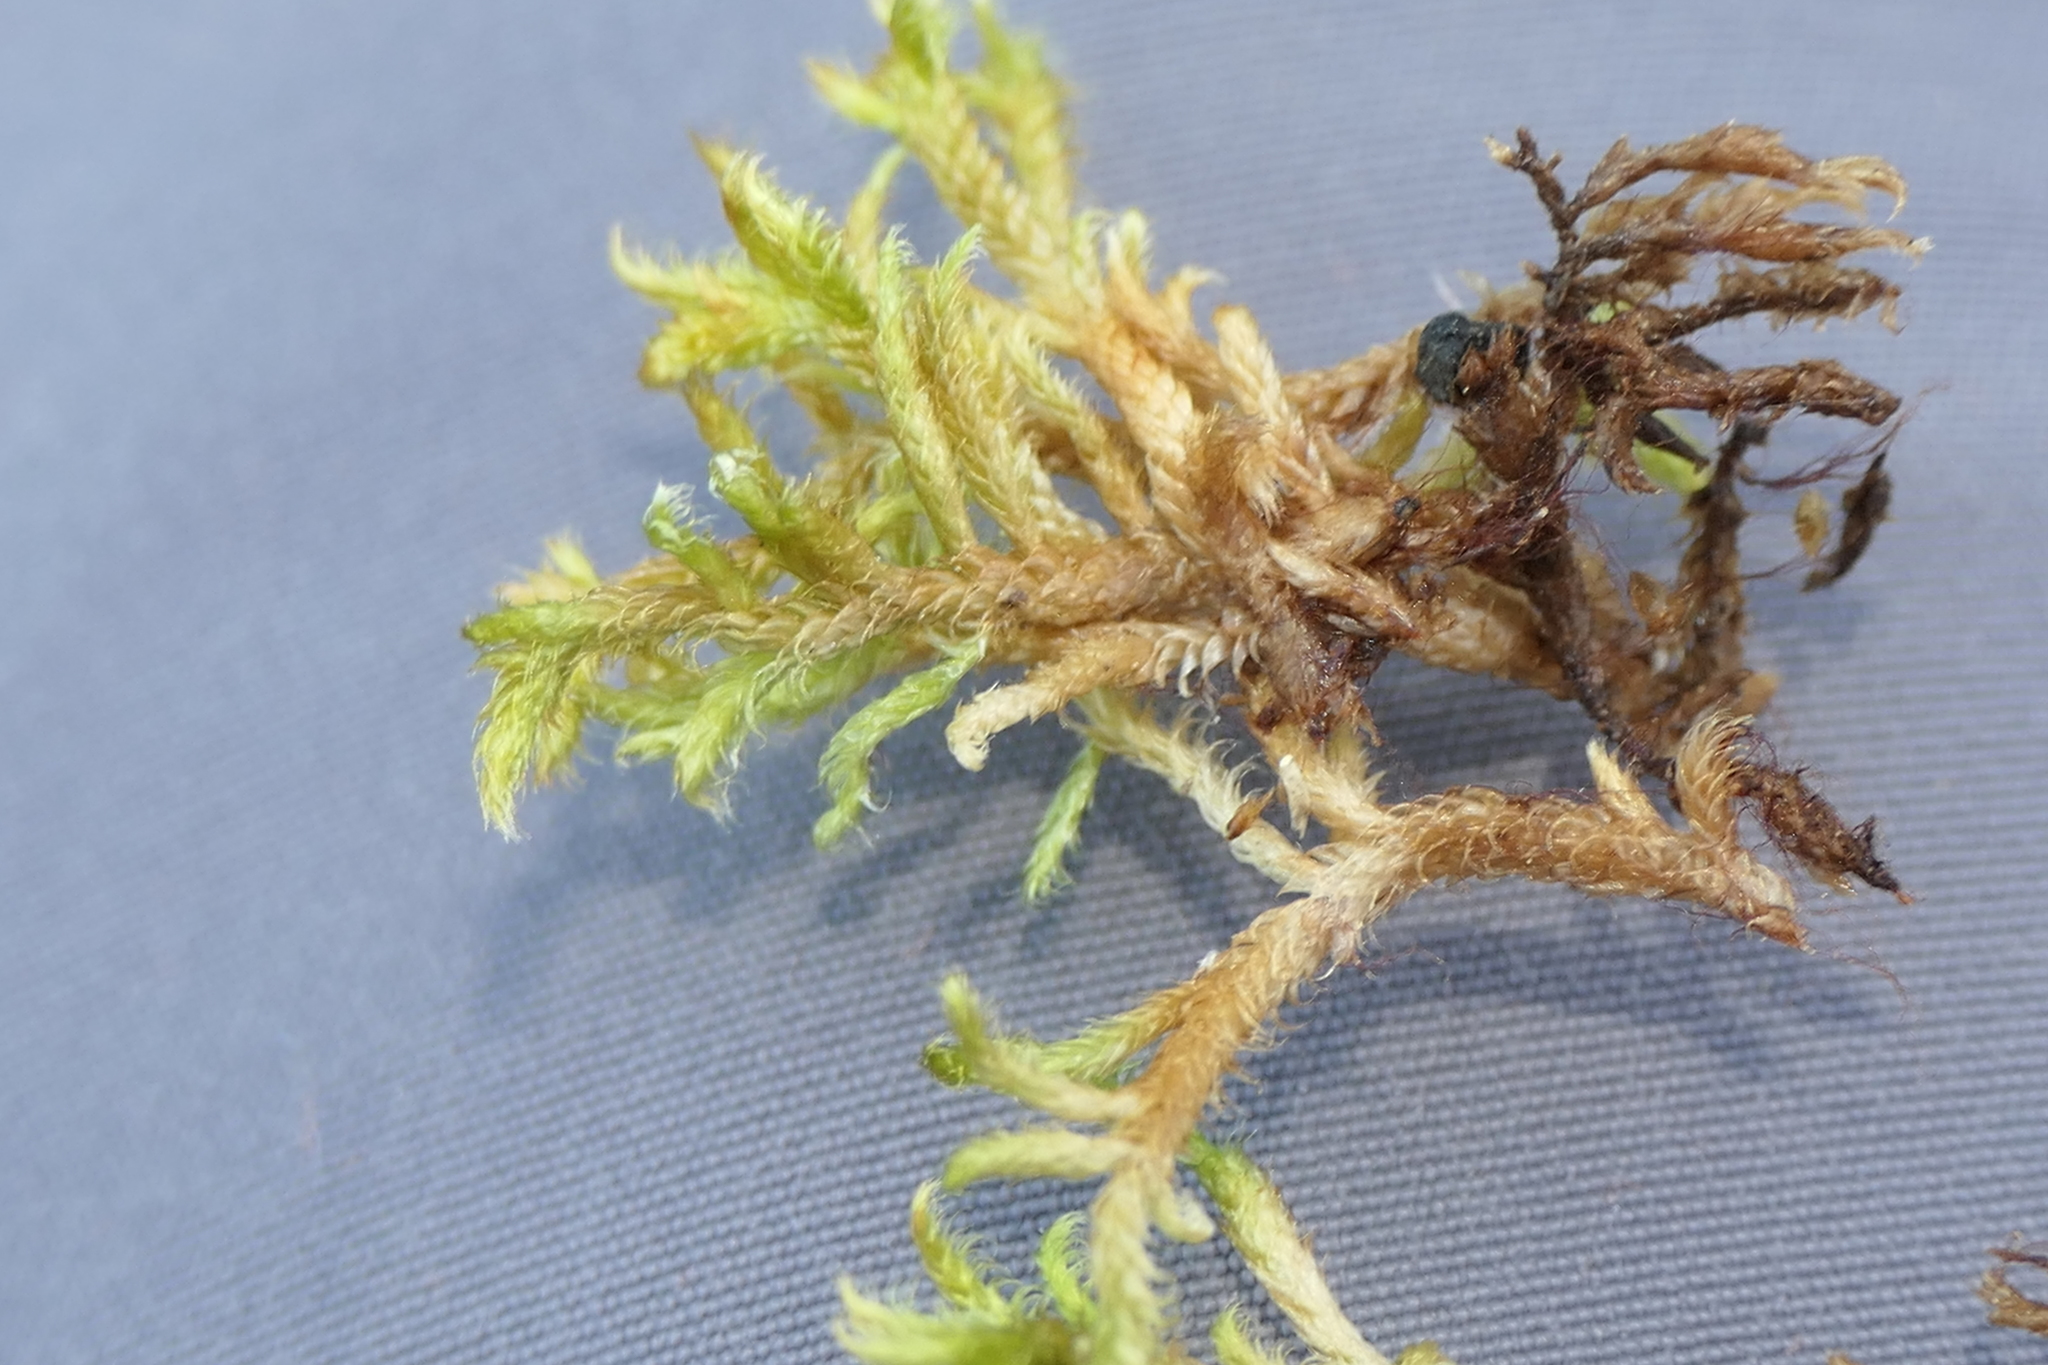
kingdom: Plantae
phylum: Bryophyta
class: Bryopsida
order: Hypnales
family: Hypnaceae
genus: Hypnum
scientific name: Hypnum cupressiforme
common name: Cypress-leaved plait-moss
